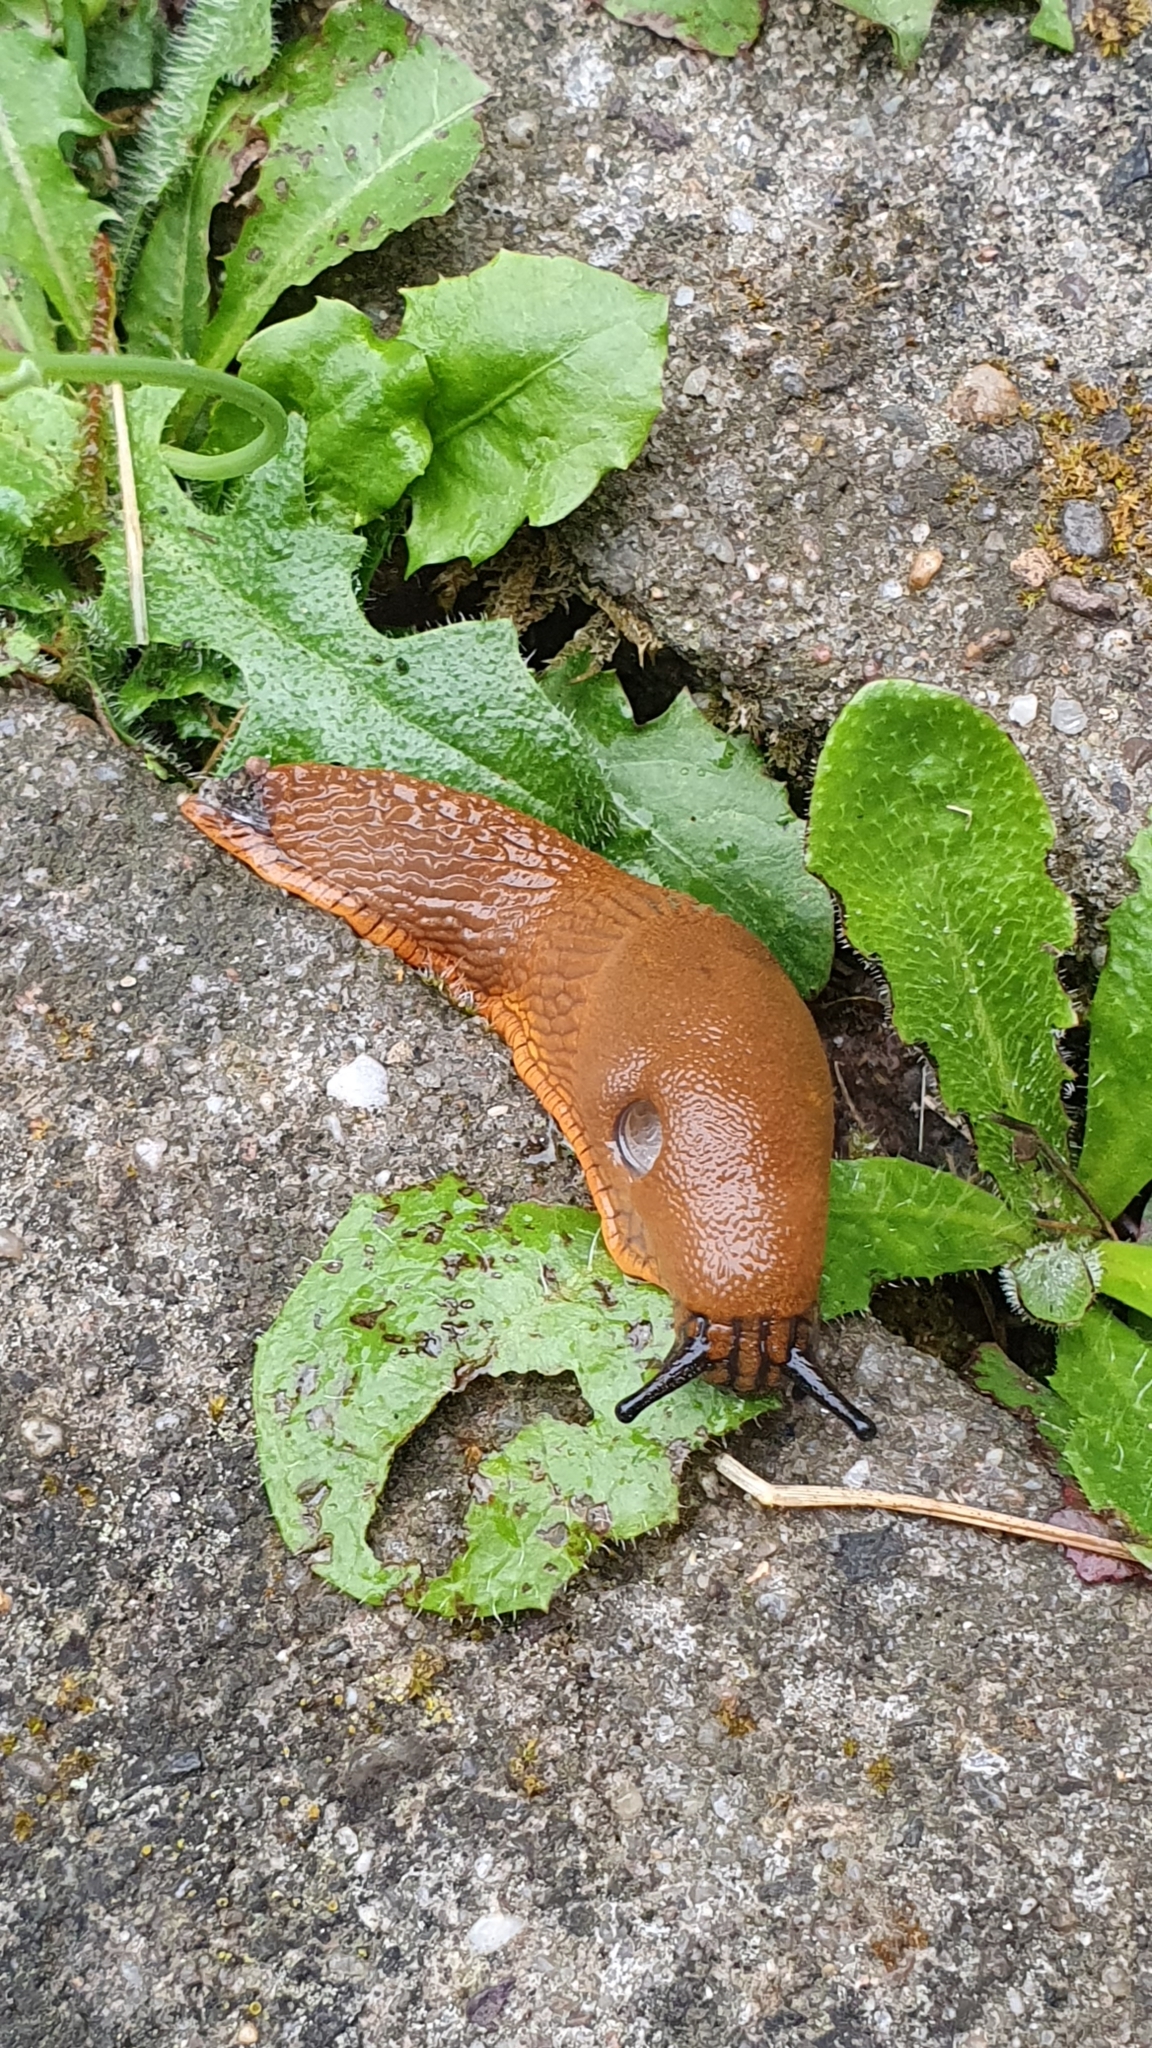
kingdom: Animalia
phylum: Mollusca
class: Gastropoda
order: Stylommatophora
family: Arionidae
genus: Arion
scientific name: Arion rufus
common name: Chocolate arion
